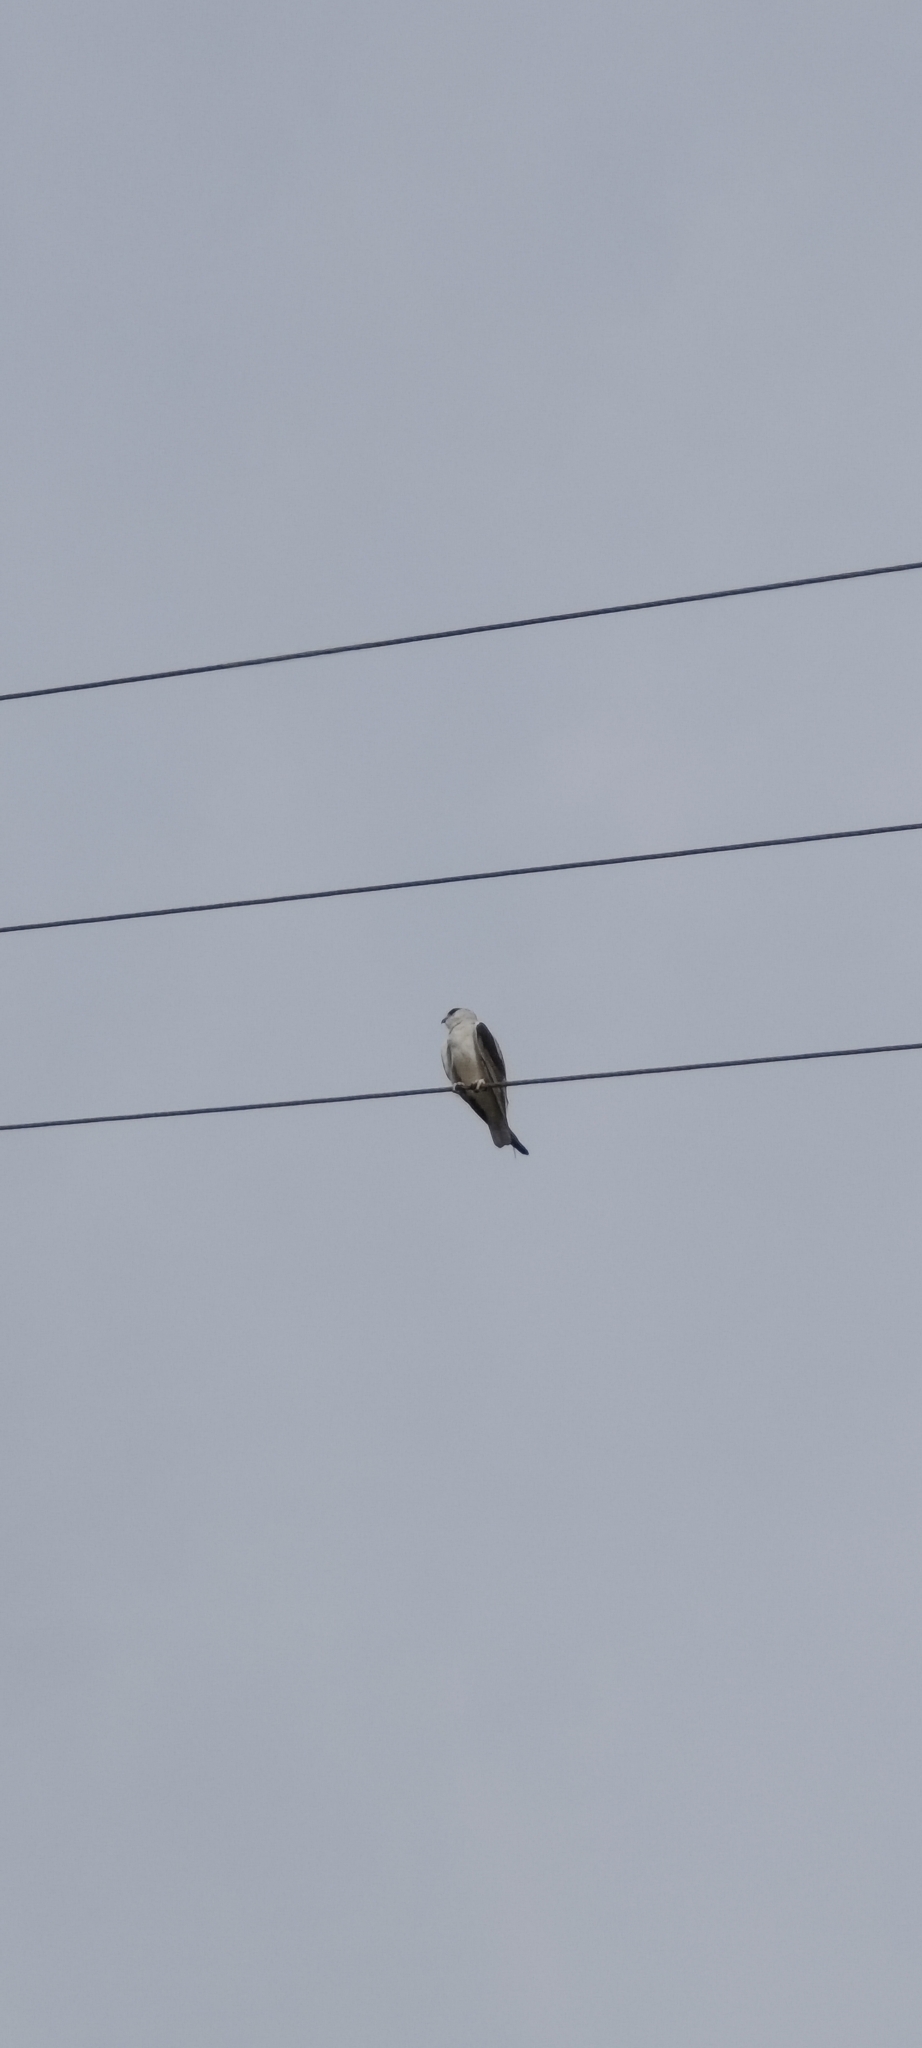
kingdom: Animalia
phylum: Chordata
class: Aves
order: Accipitriformes
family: Accipitridae
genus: Elanus
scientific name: Elanus caeruleus
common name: Black-winged kite
